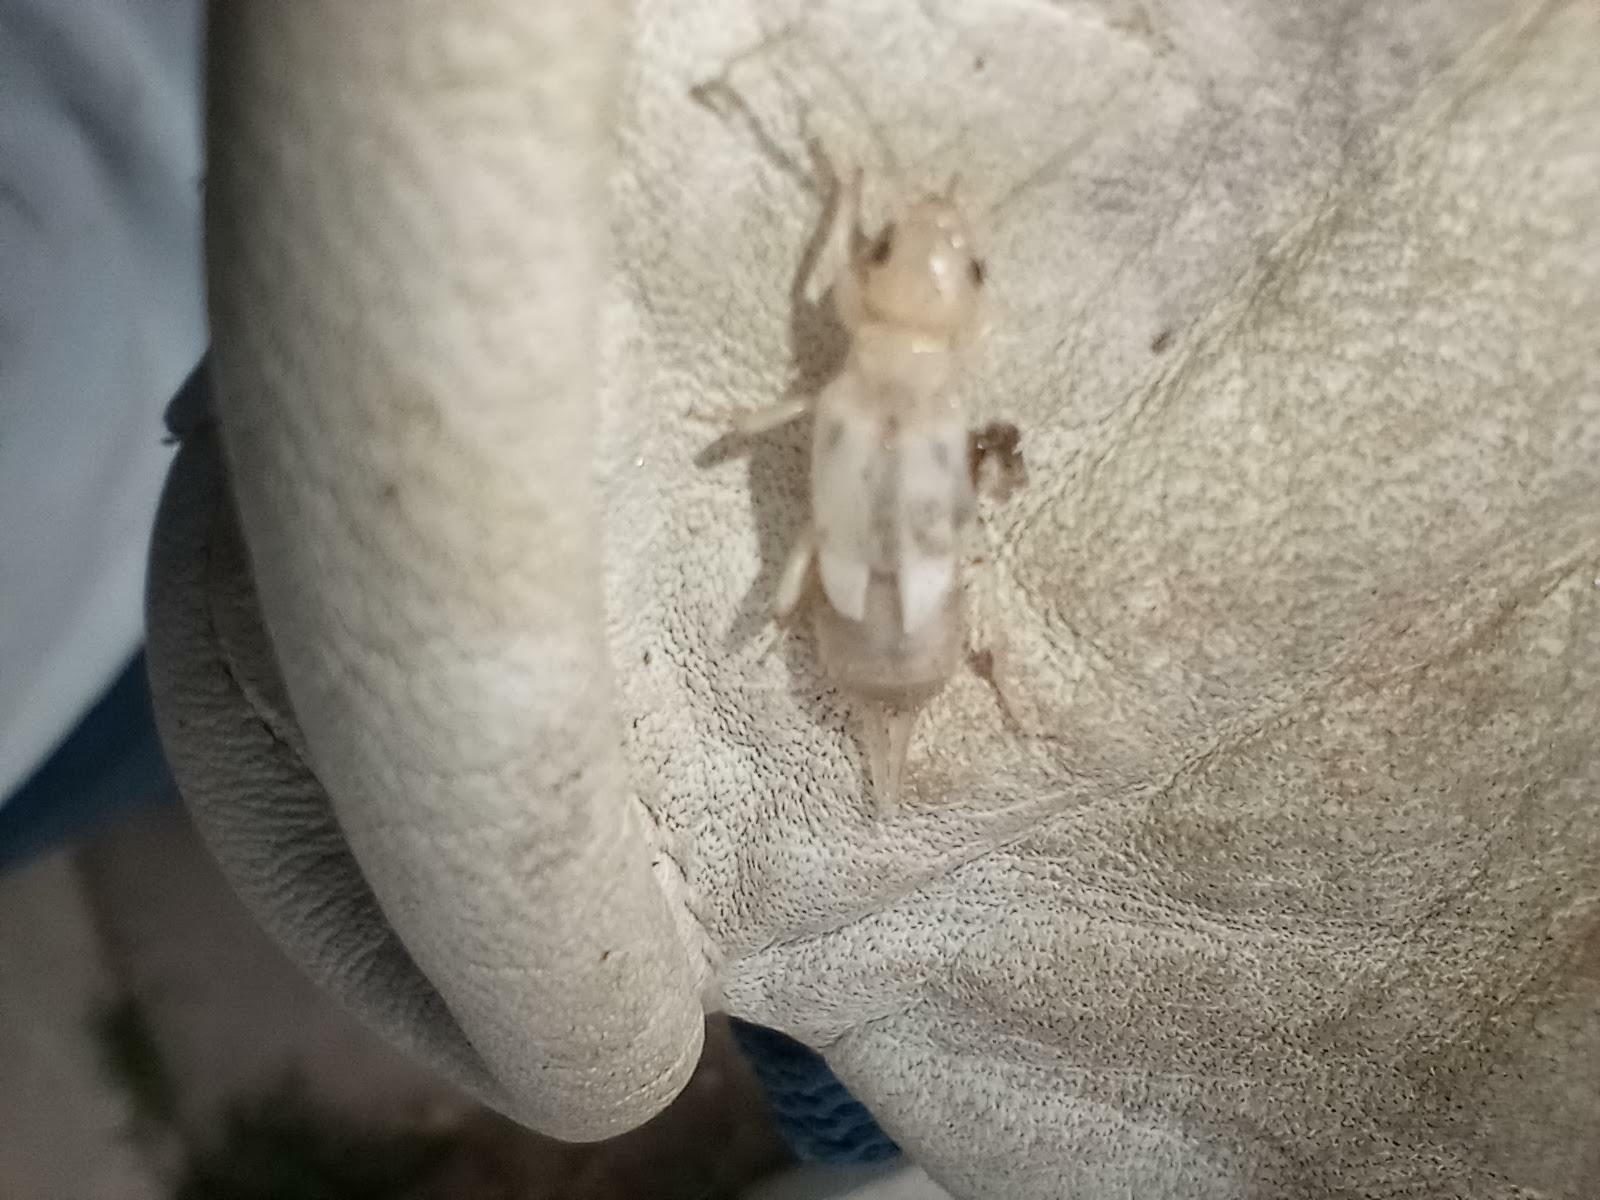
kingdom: Animalia
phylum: Arthropoda
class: Insecta
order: Dermaptera
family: Forficulidae
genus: Forficula
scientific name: Forficula
